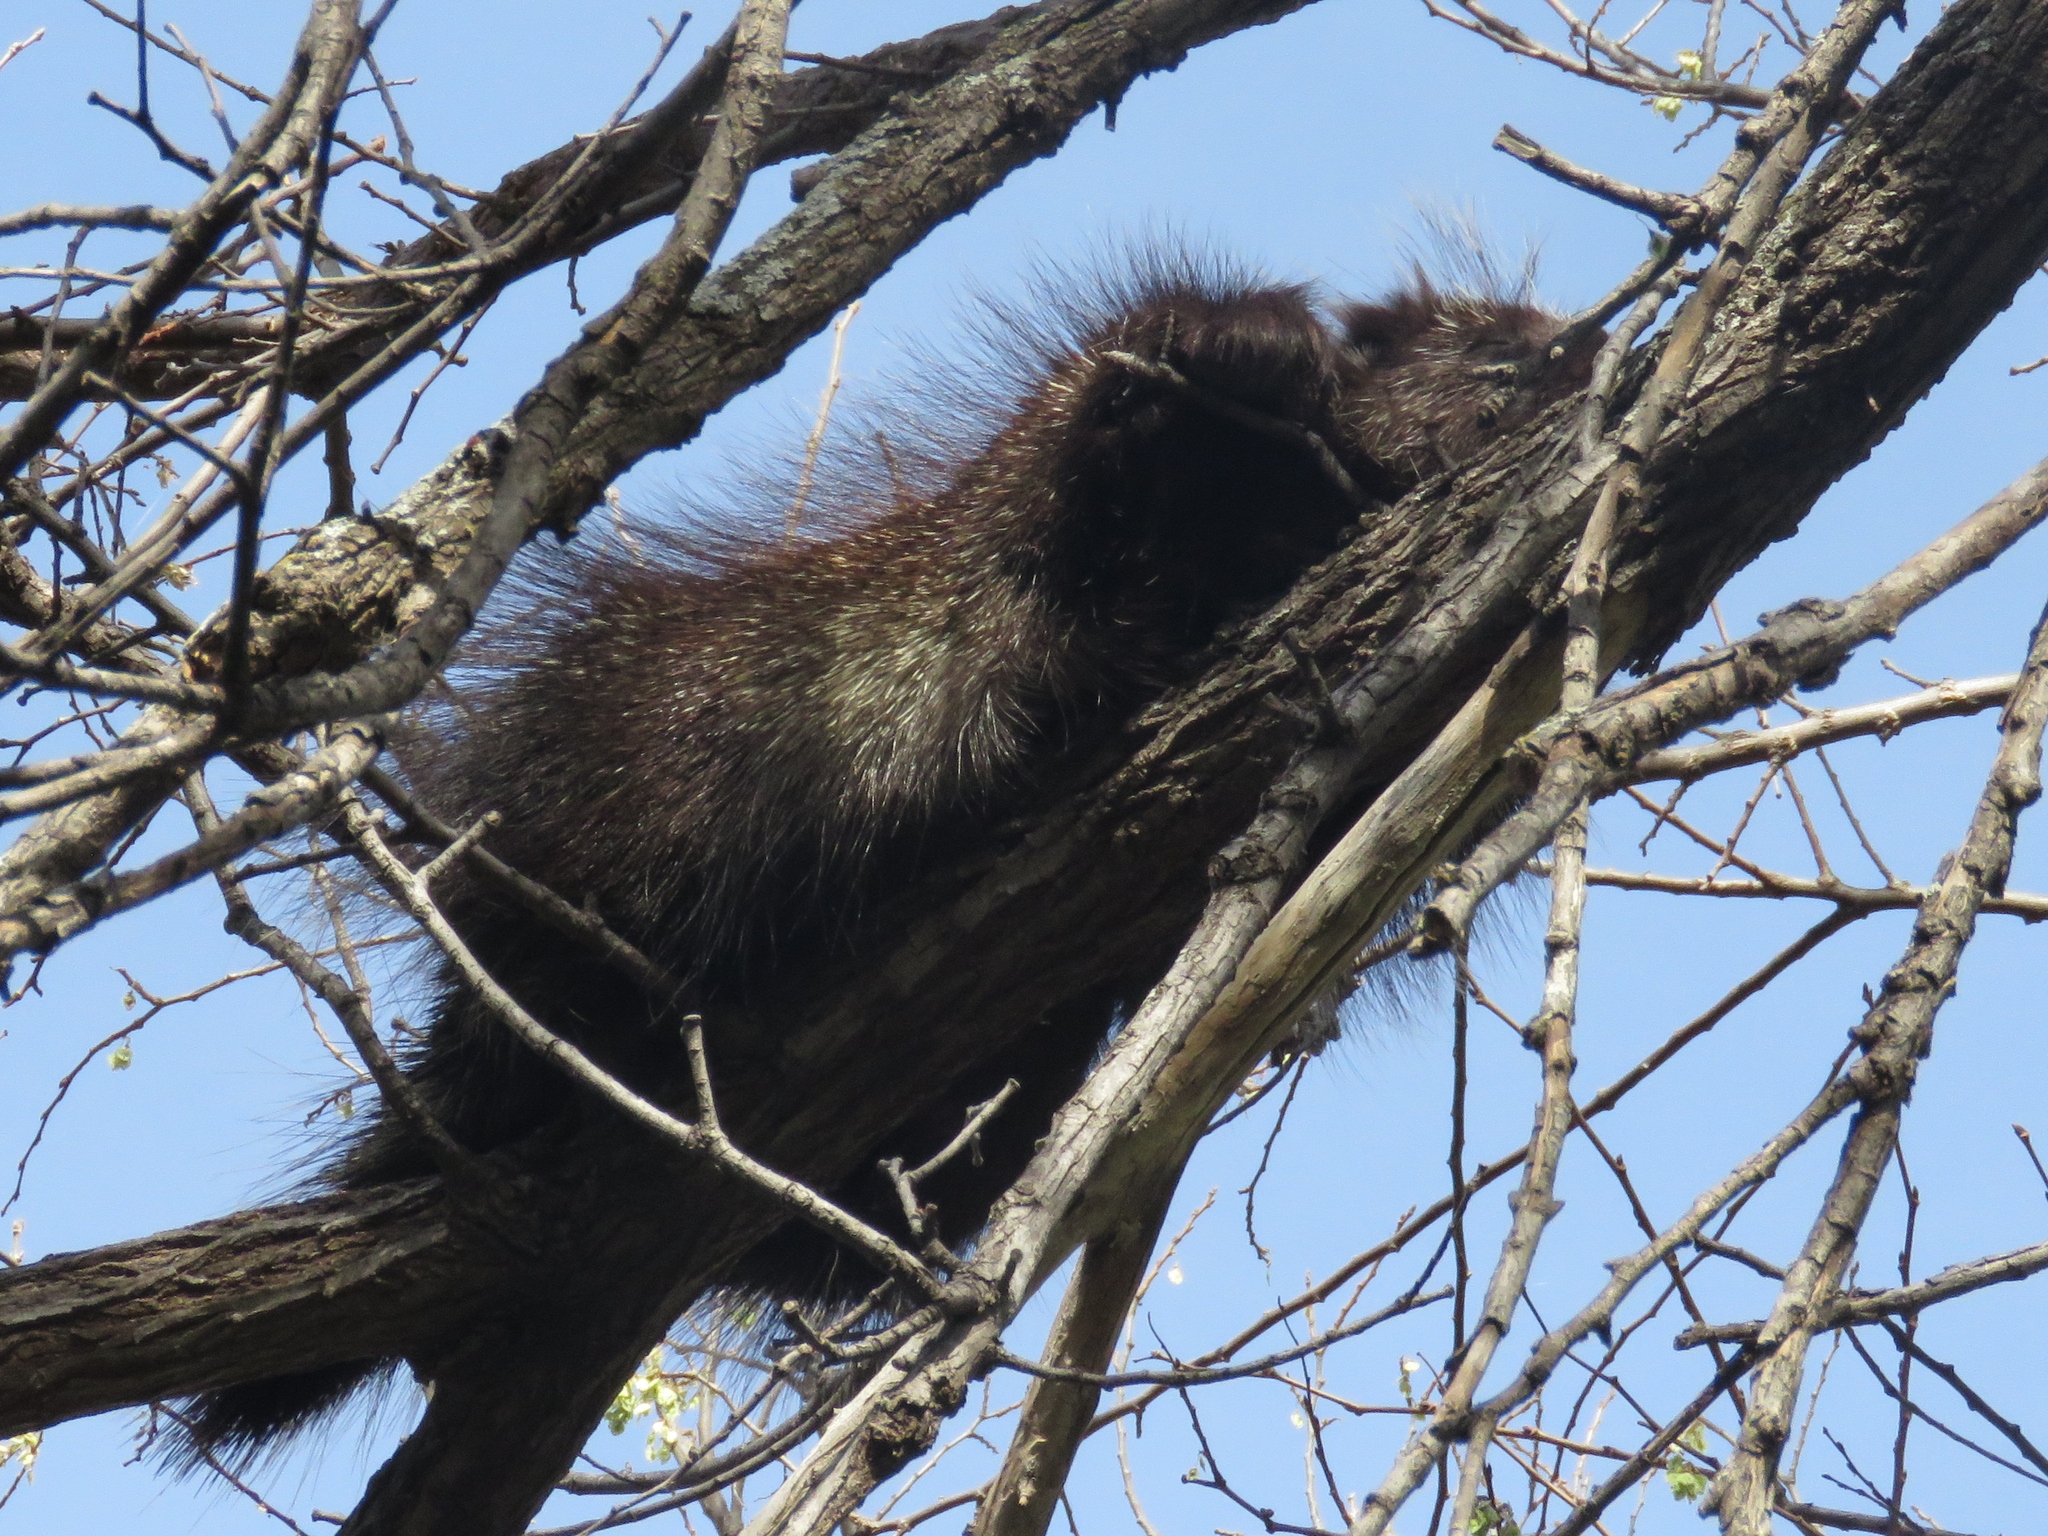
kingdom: Animalia
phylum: Chordata
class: Mammalia
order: Rodentia
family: Erethizontidae
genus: Erethizon
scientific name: Erethizon dorsatus
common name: North american porcupine
